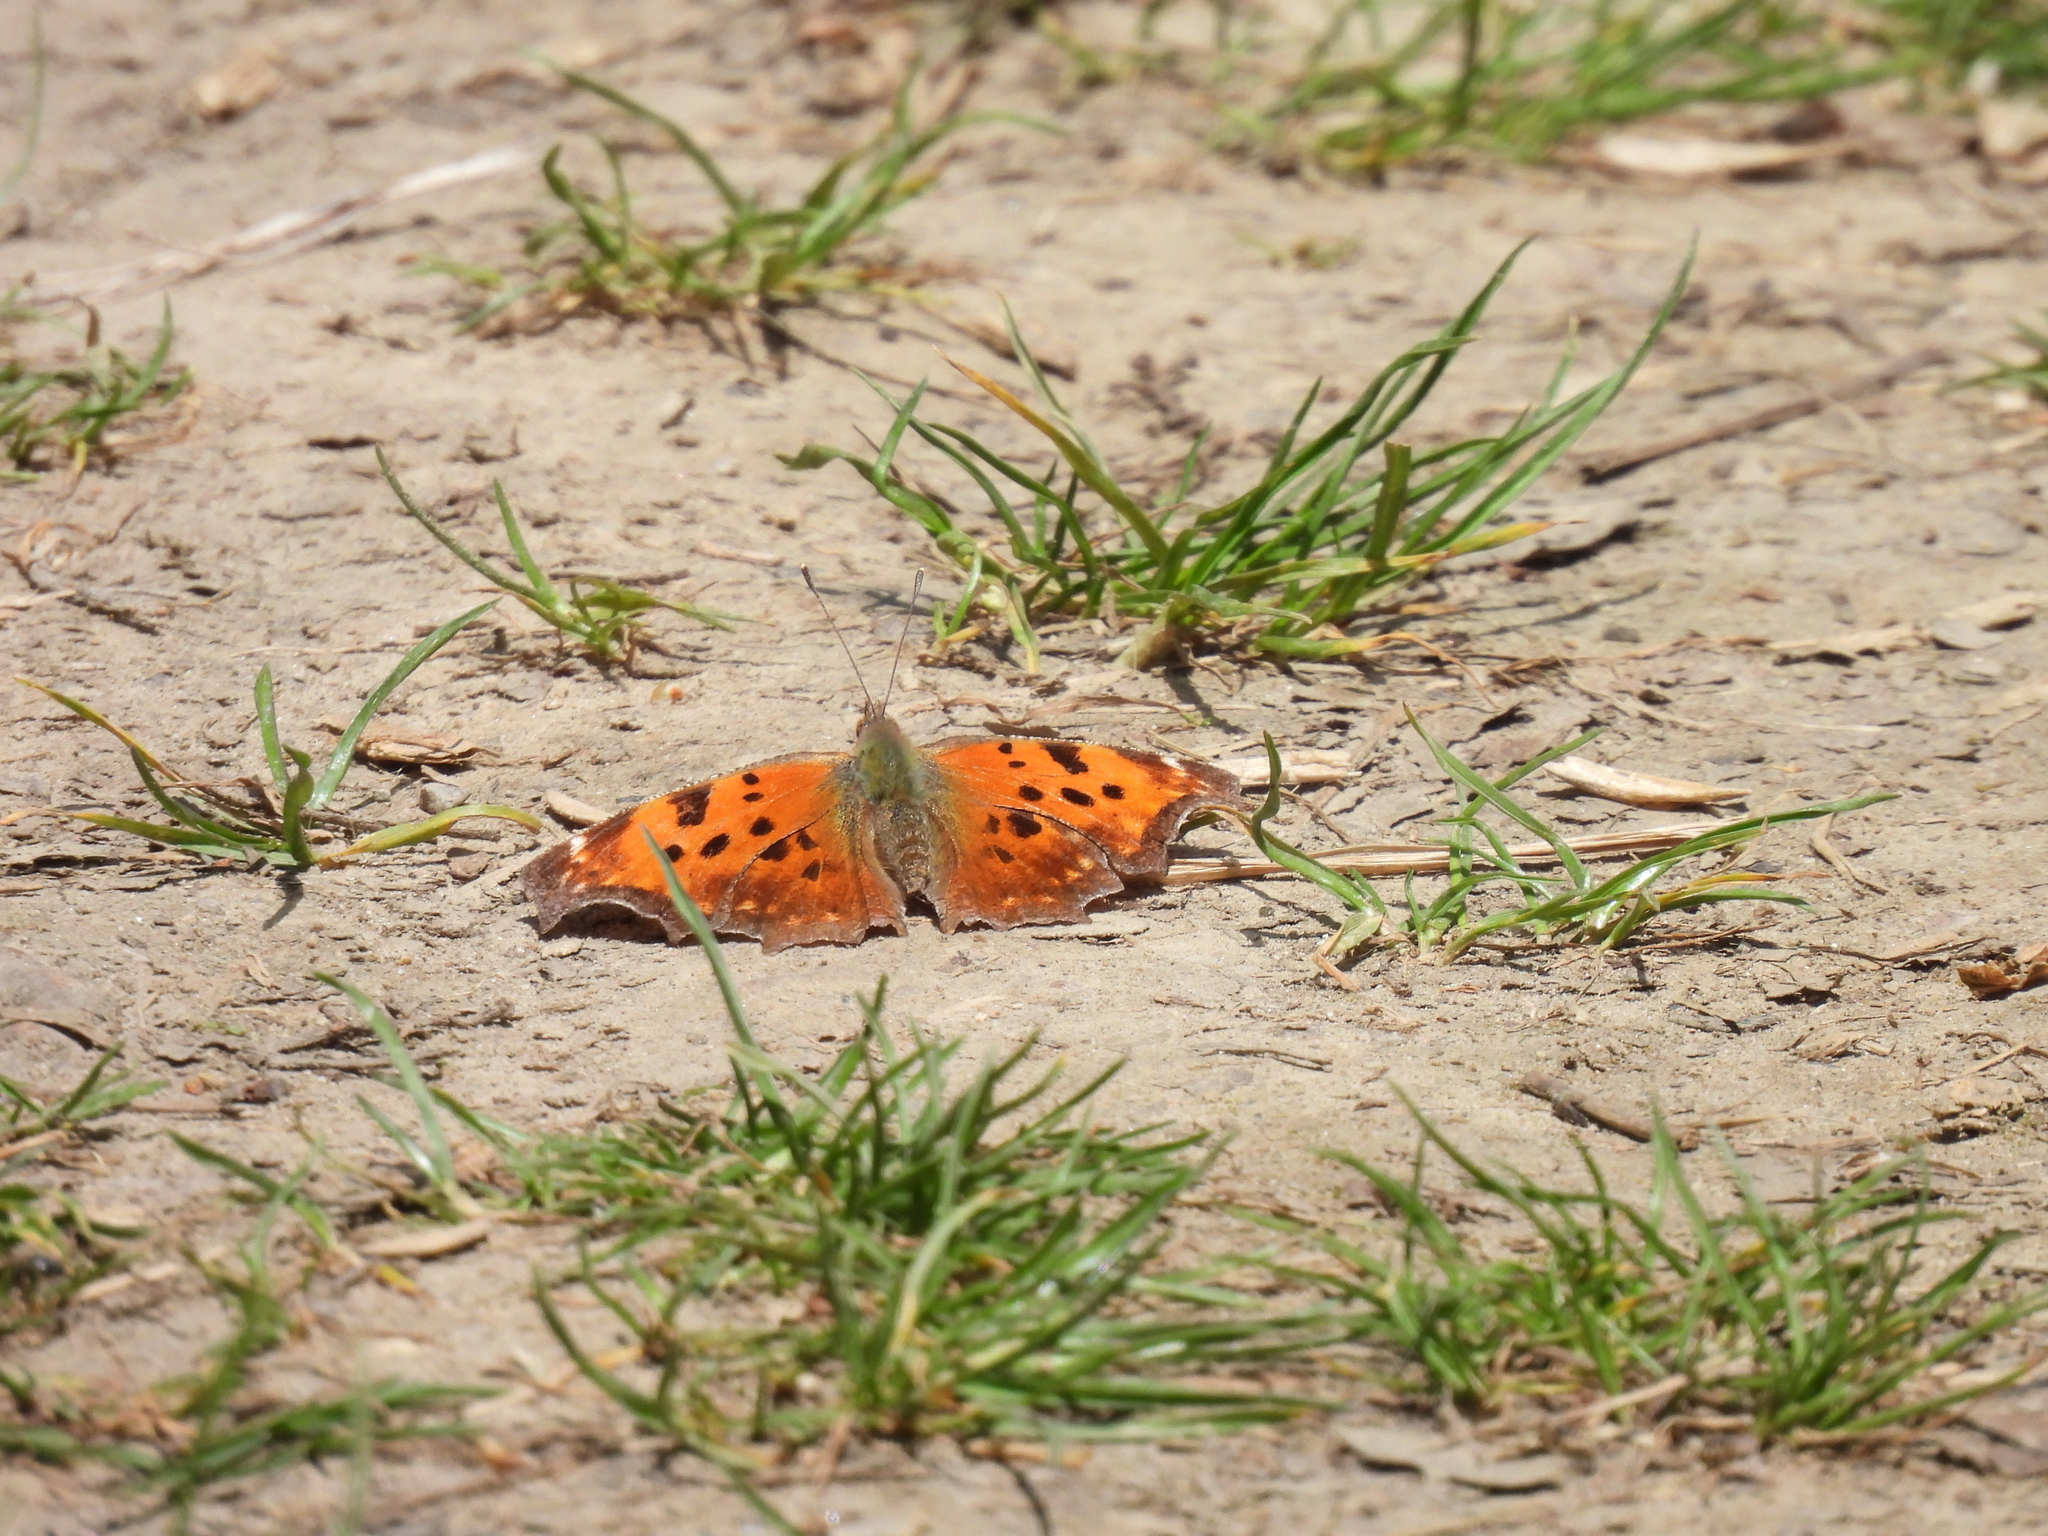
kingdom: Animalia
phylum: Arthropoda
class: Insecta
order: Lepidoptera
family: Nymphalidae
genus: Polygonia
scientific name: Polygonia comma
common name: Eastern comma
